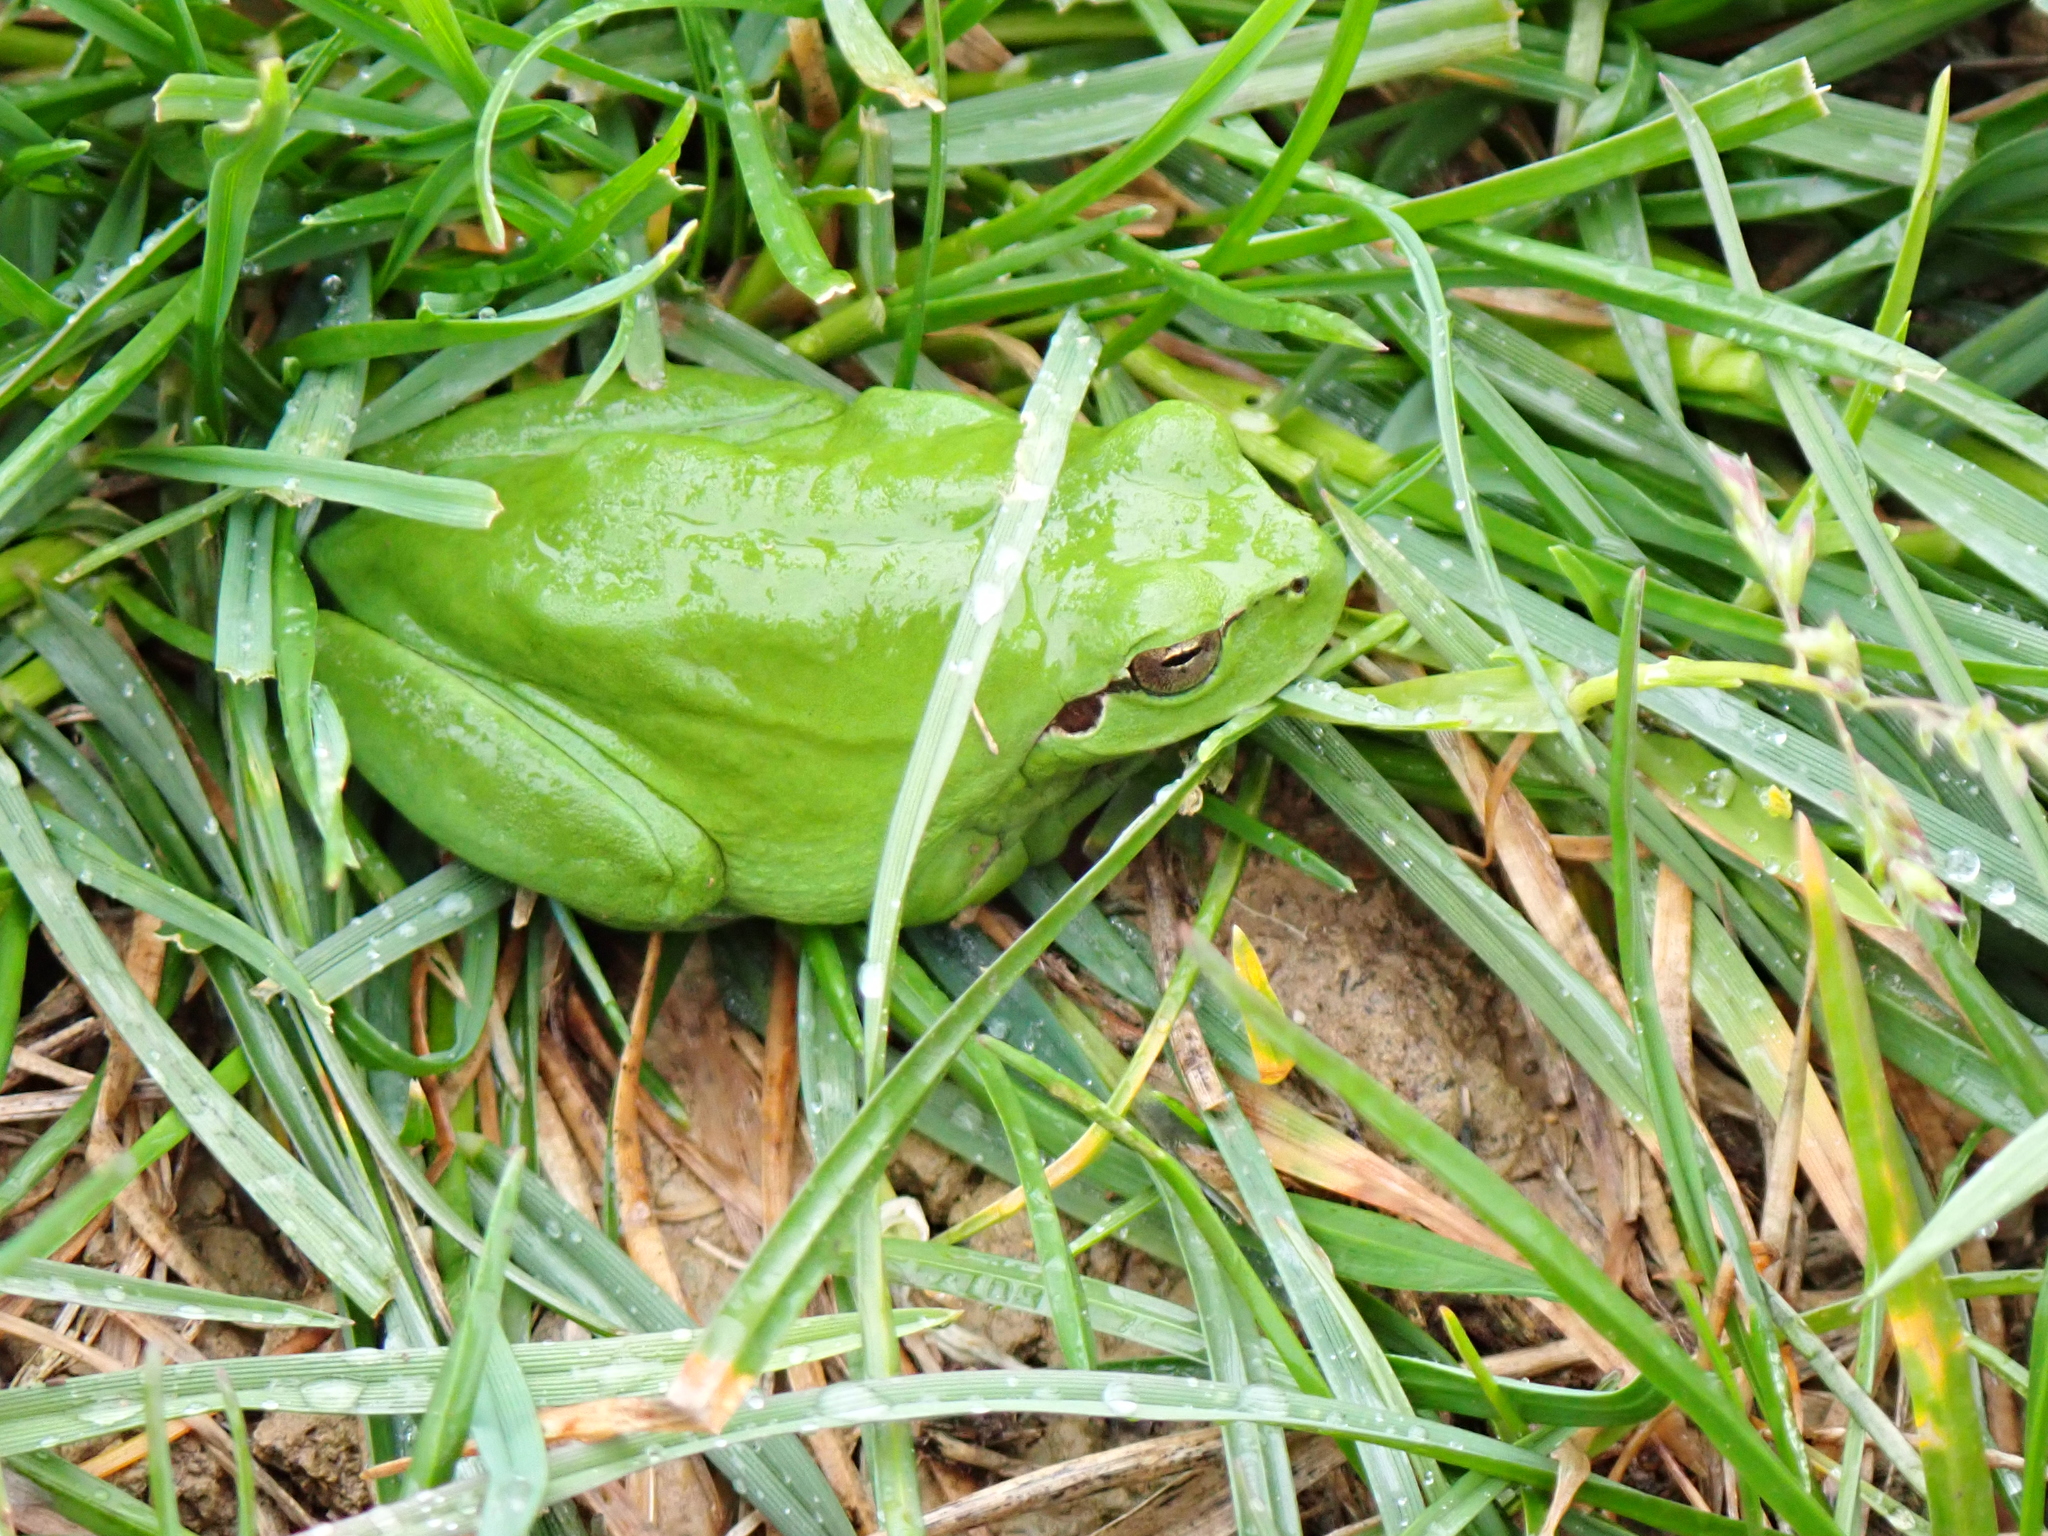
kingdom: Animalia
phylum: Chordata
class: Amphibia
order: Anura
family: Hylidae
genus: Hyla
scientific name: Hyla meridionalis
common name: Stripeless tree frog
